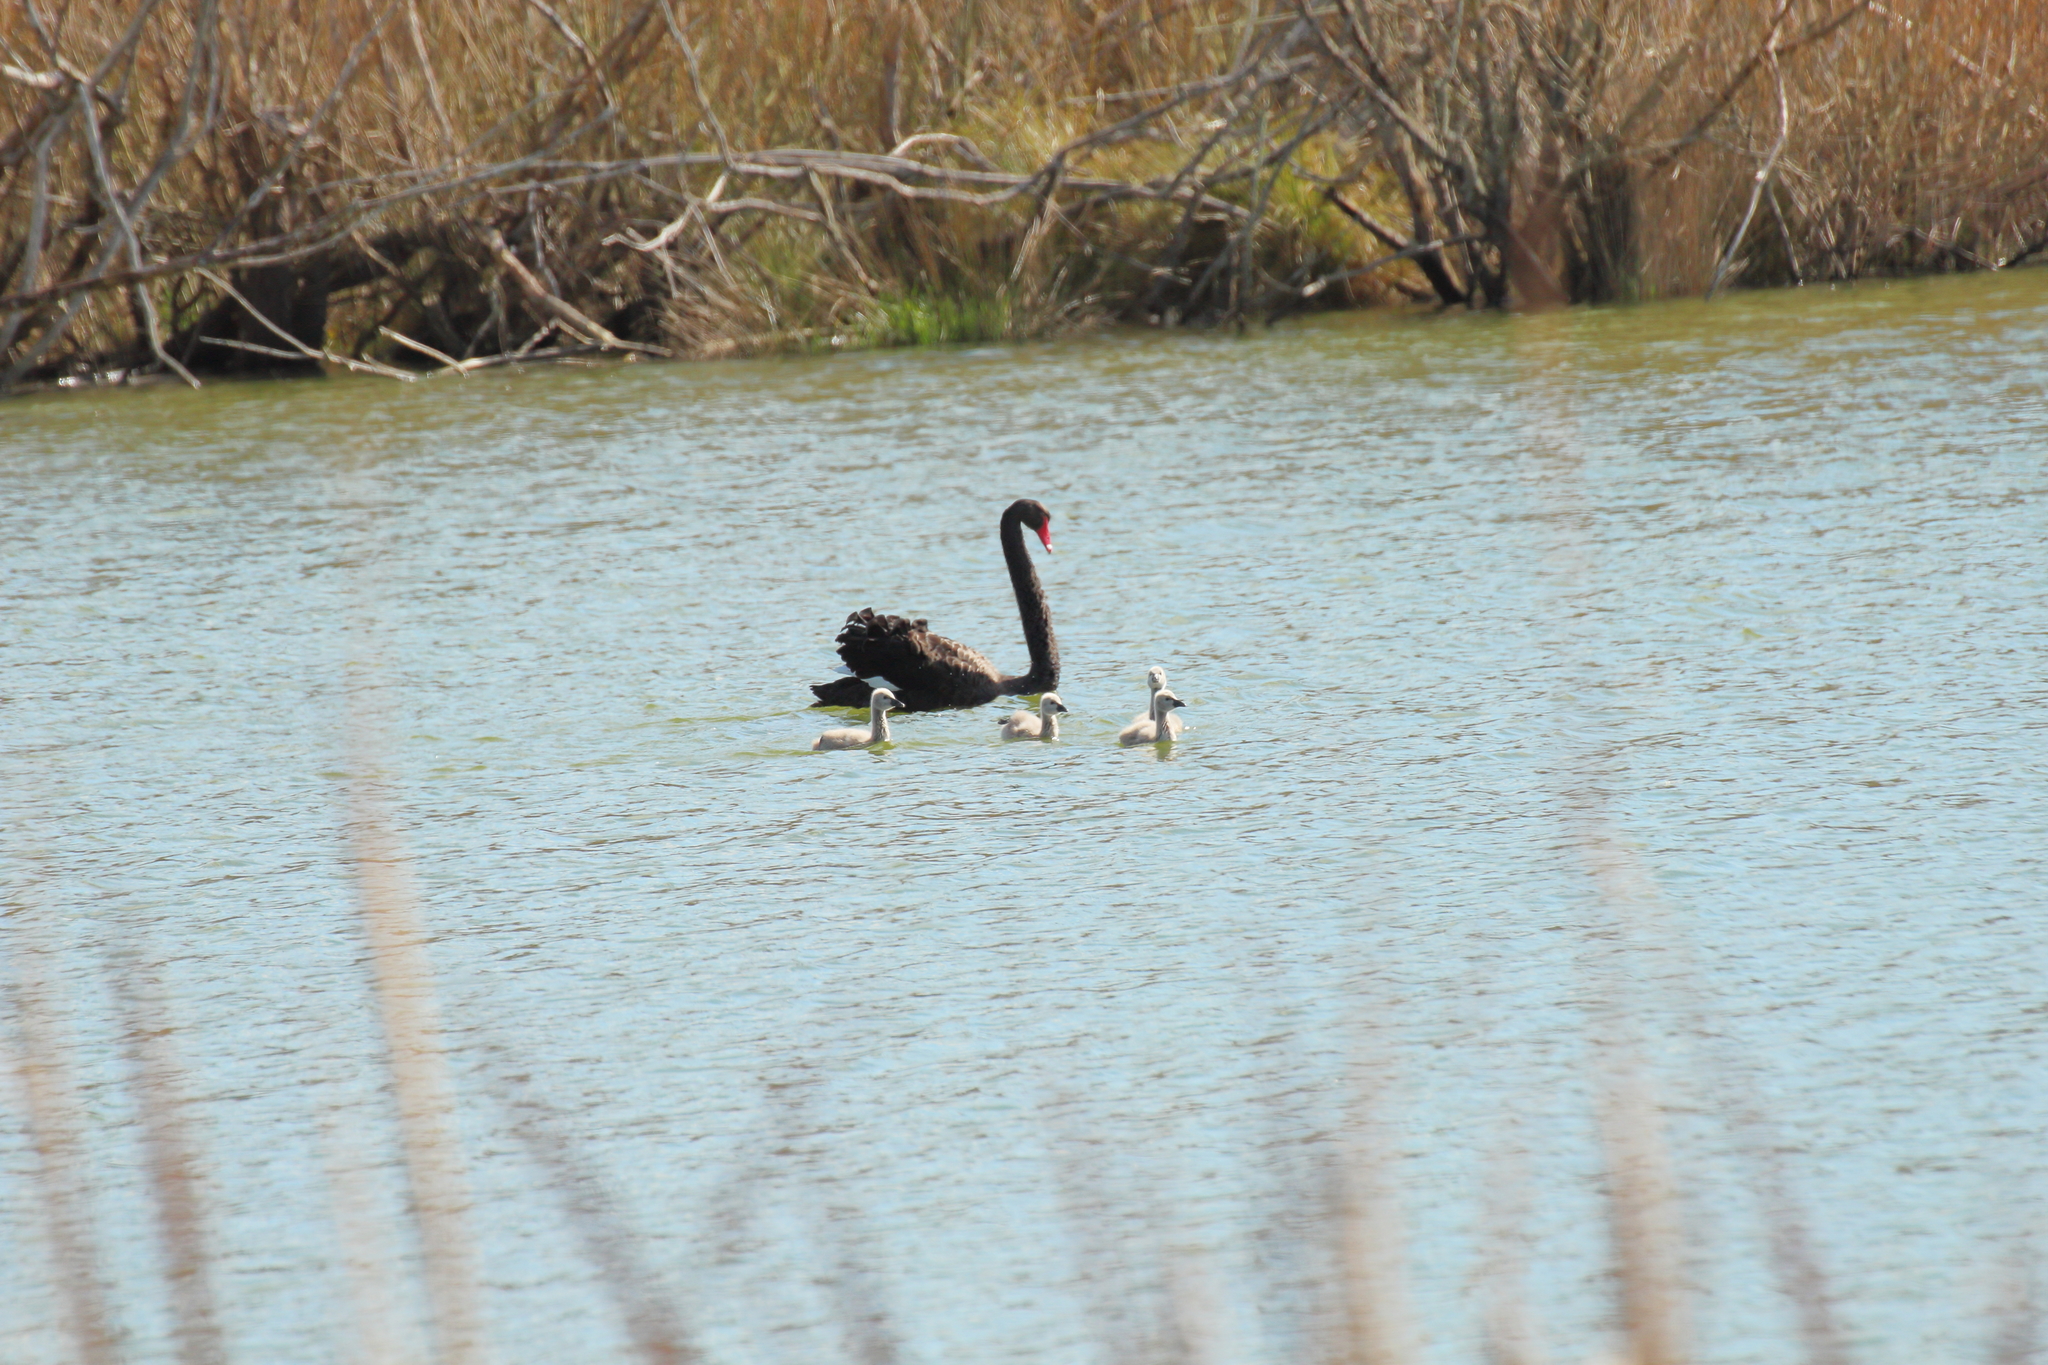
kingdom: Animalia
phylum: Chordata
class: Aves
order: Anseriformes
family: Anatidae
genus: Cygnus
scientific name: Cygnus atratus
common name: Black swan
